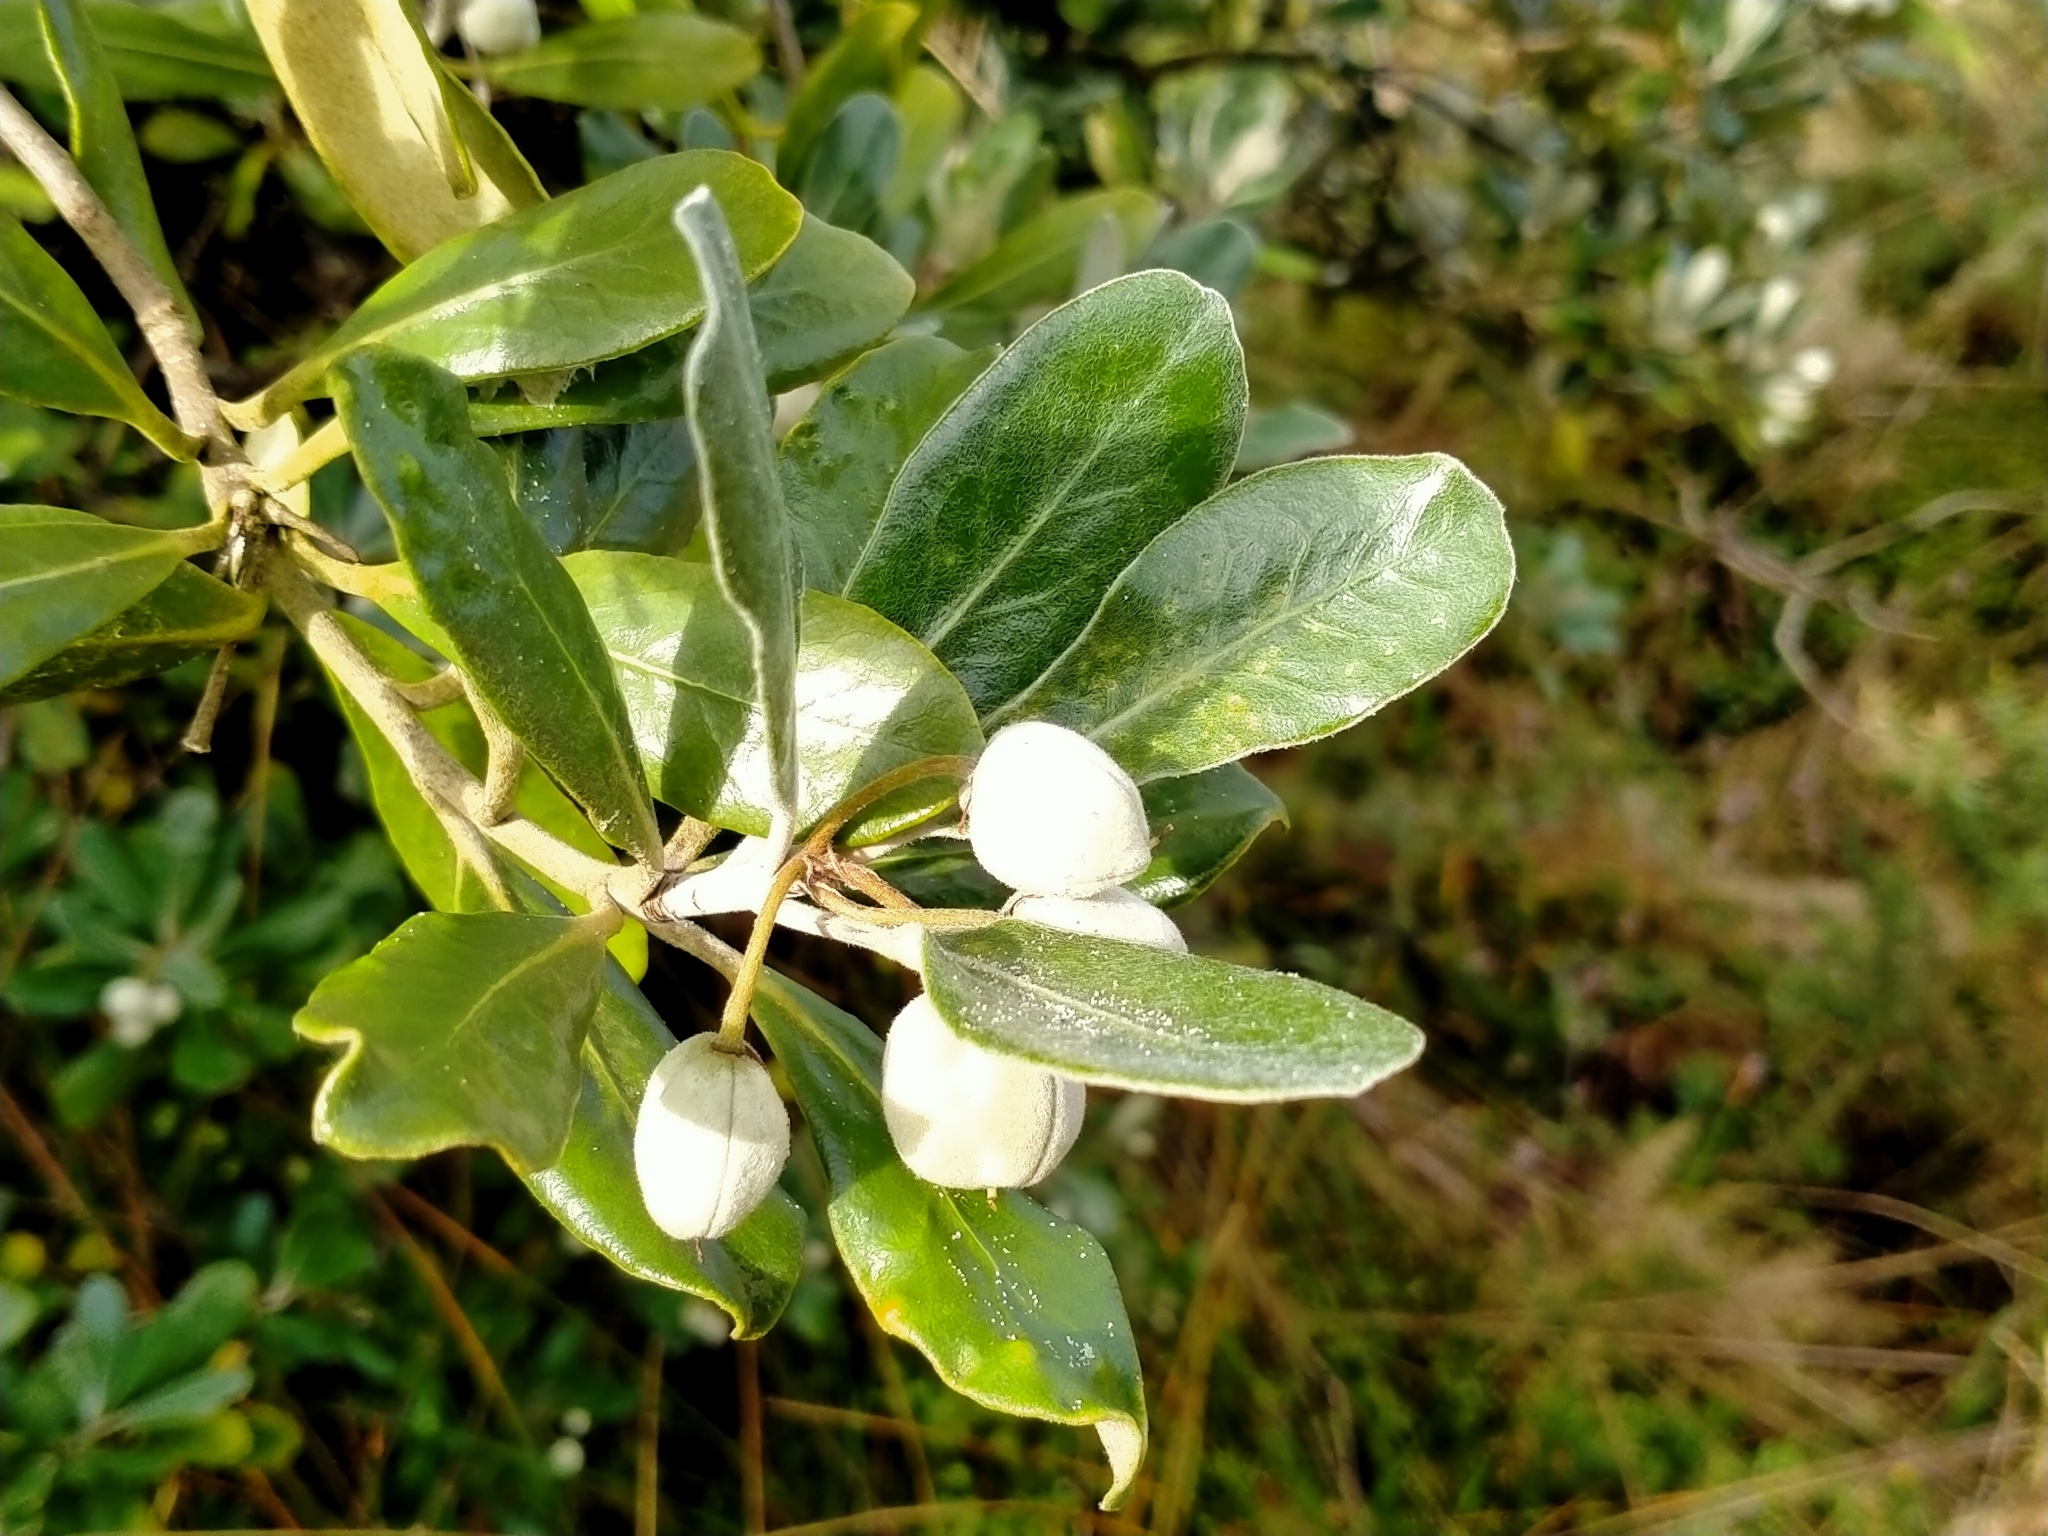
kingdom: Plantae
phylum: Tracheophyta
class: Magnoliopsida
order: Apiales
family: Pittosporaceae
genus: Pittosporum
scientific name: Pittosporum crassifolium
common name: Karo
